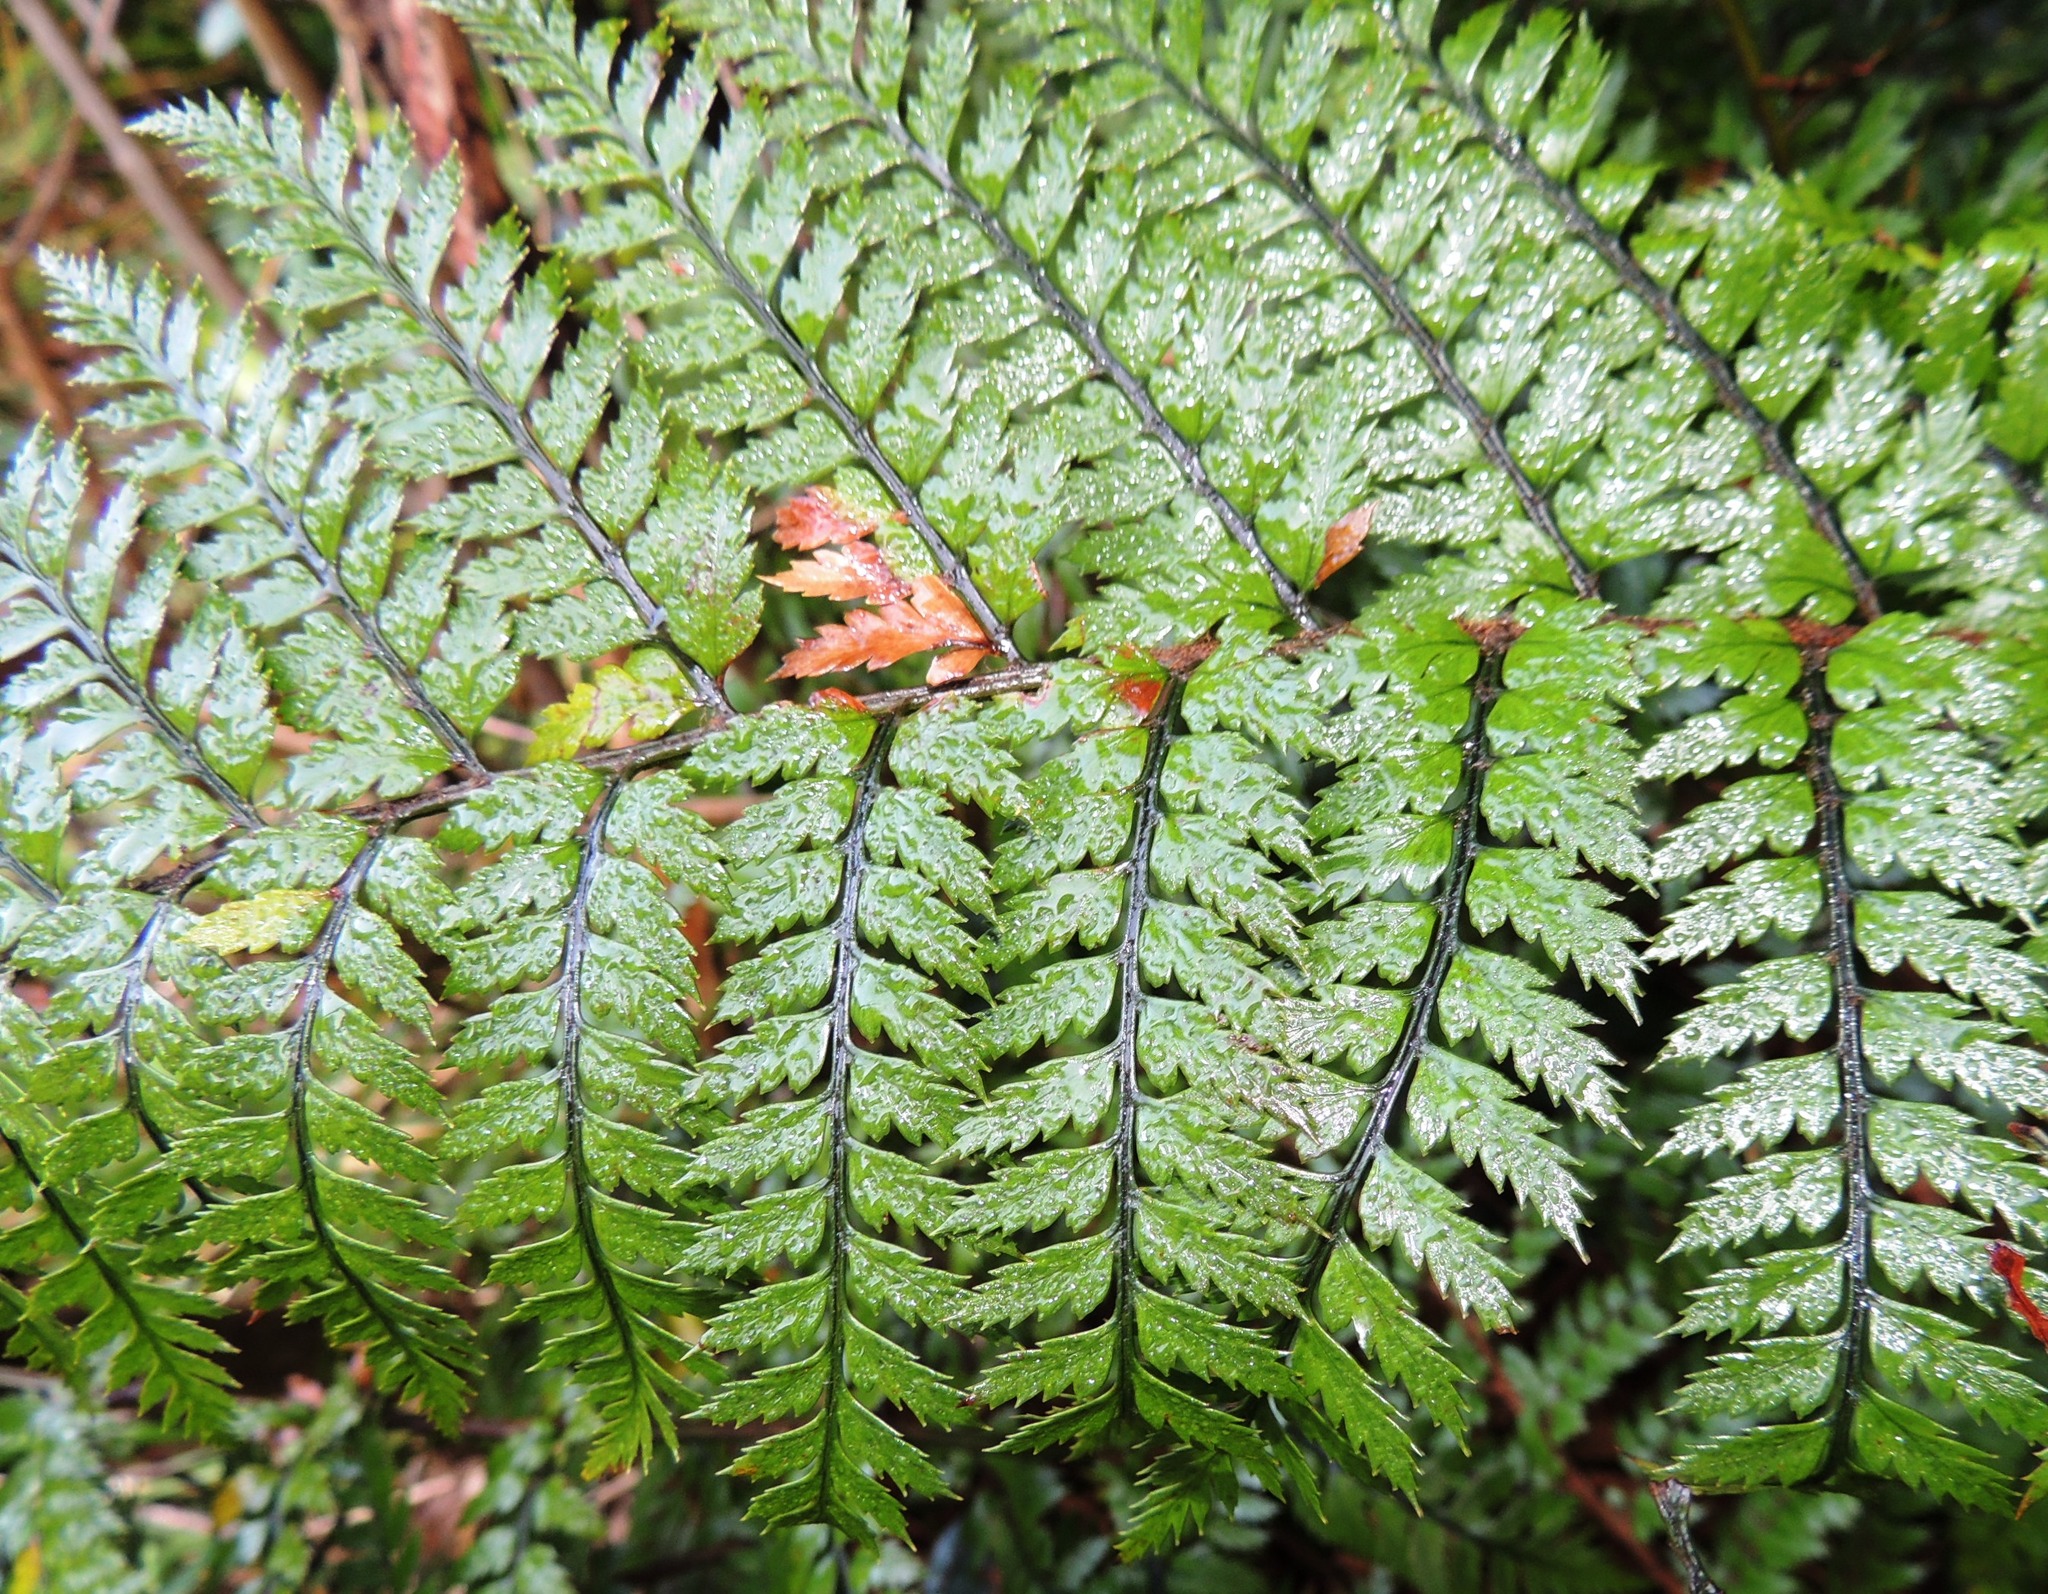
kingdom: Plantae
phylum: Tracheophyta
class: Polypodiopsida
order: Polypodiales
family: Dryopteridaceae
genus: Polystichum
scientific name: Polystichum neozelandicum
